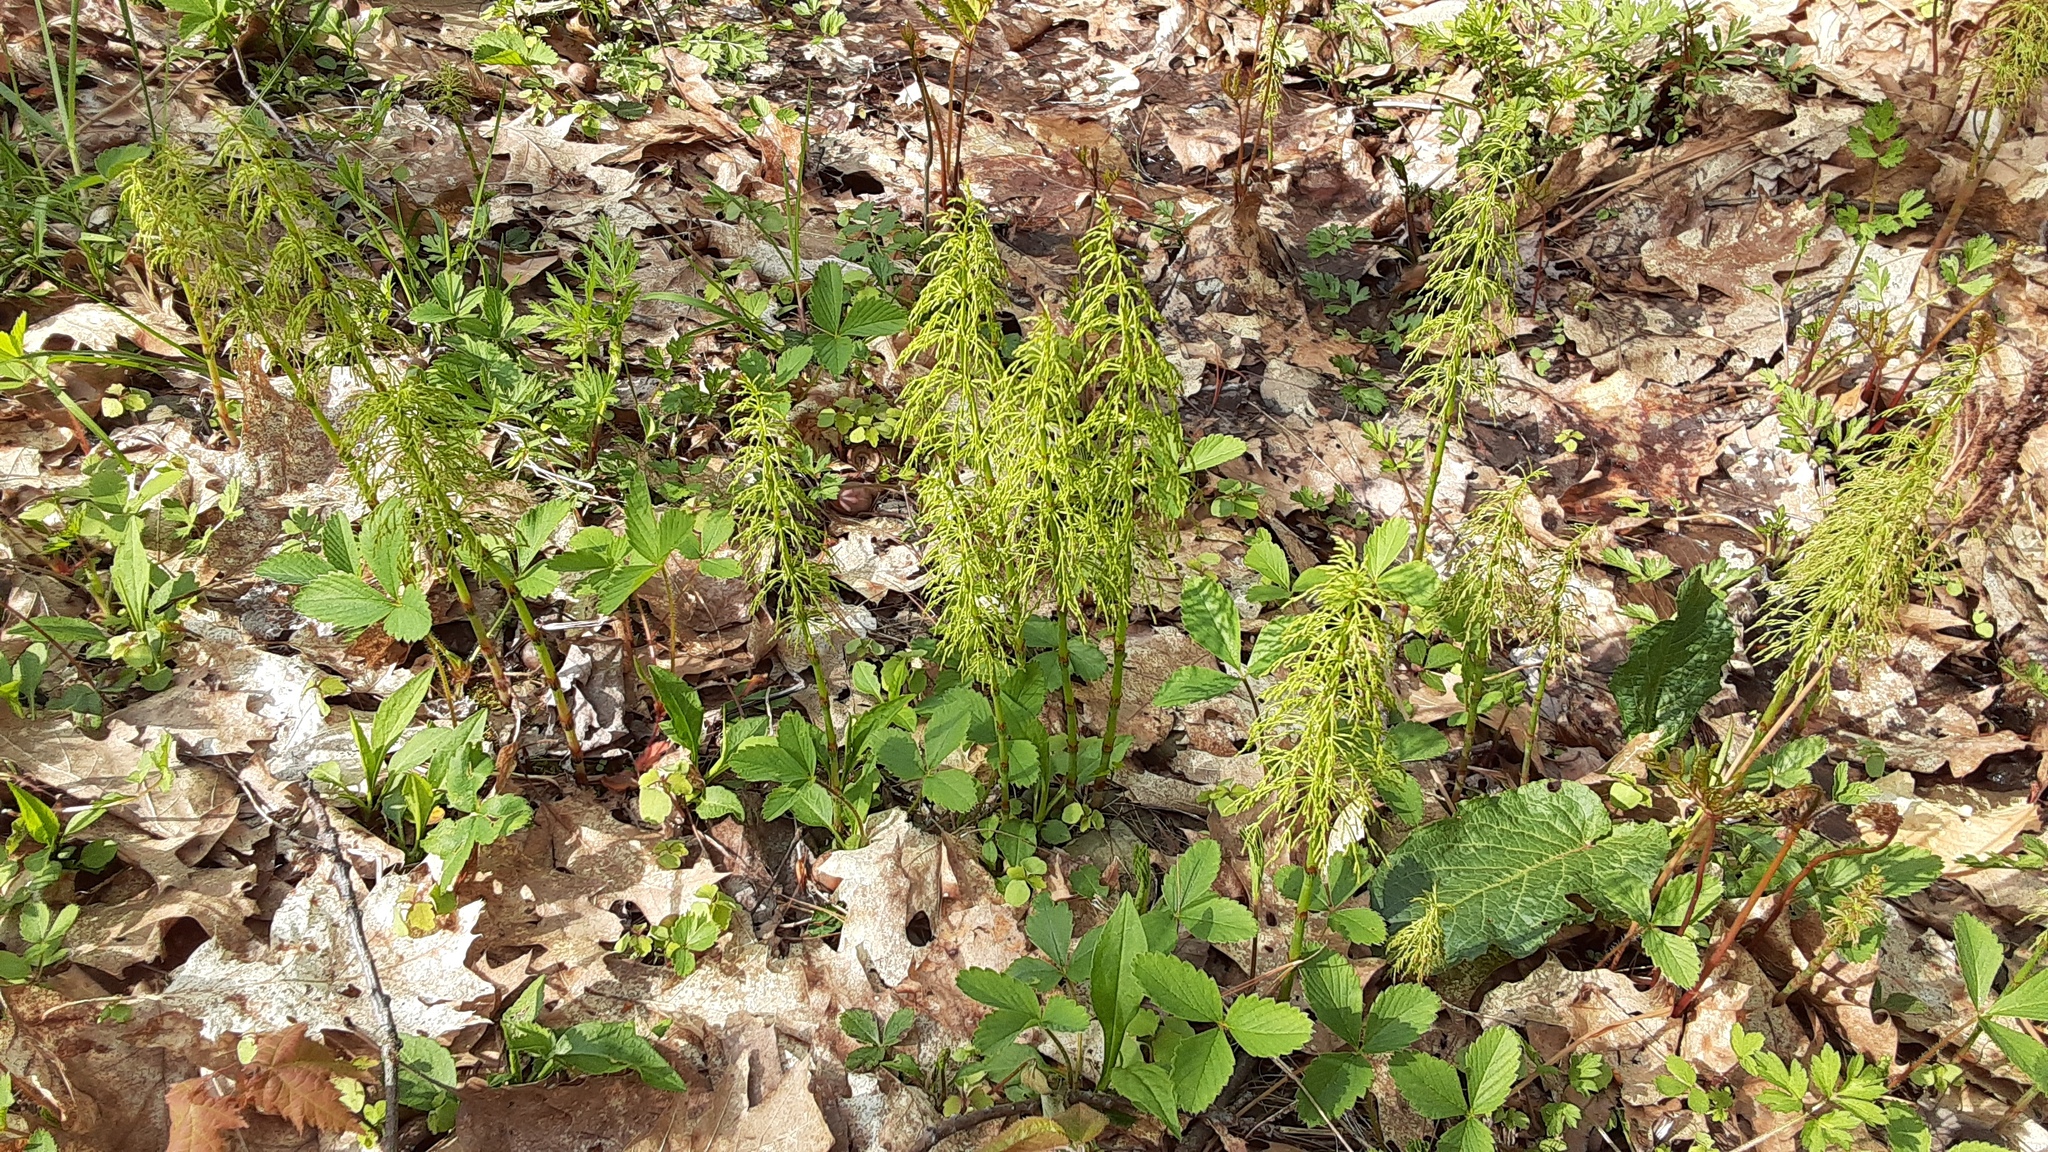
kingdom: Plantae
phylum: Tracheophyta
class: Polypodiopsida
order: Equisetales
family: Equisetaceae
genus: Equisetum
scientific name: Equisetum sylvaticum
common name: Wood horsetail
